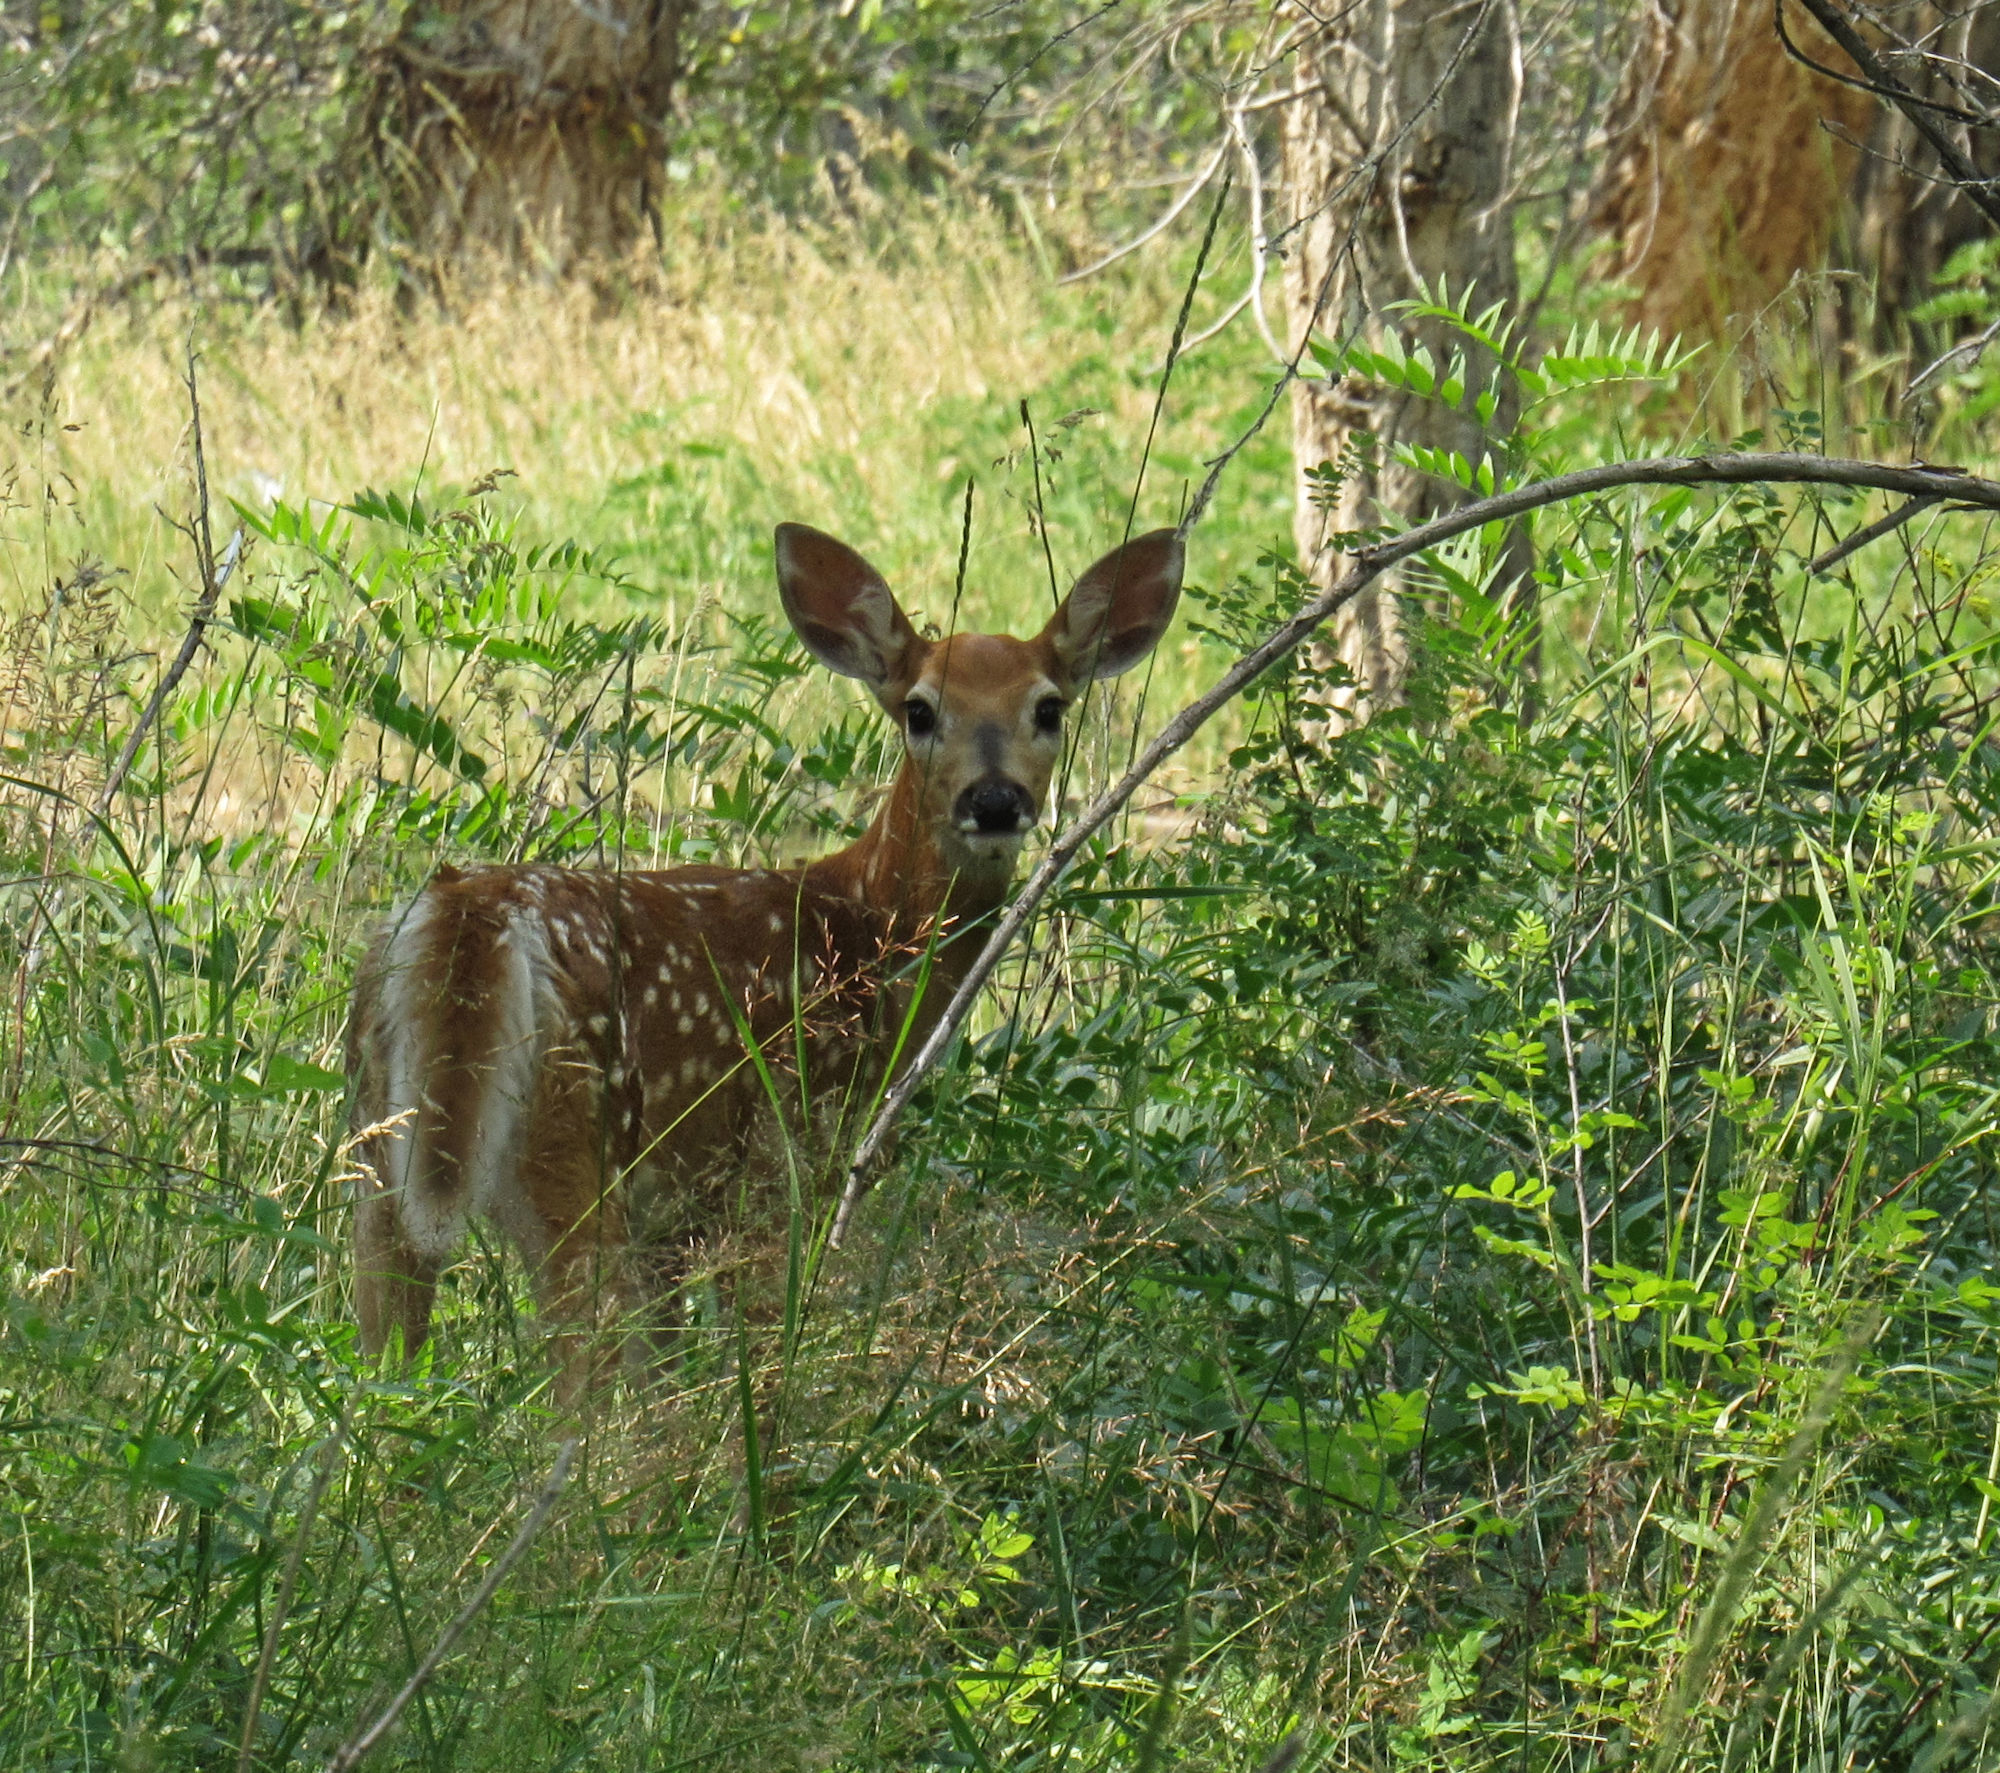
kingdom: Animalia
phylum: Chordata
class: Mammalia
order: Artiodactyla
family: Cervidae
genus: Odocoileus
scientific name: Odocoileus virginianus
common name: White-tailed deer
